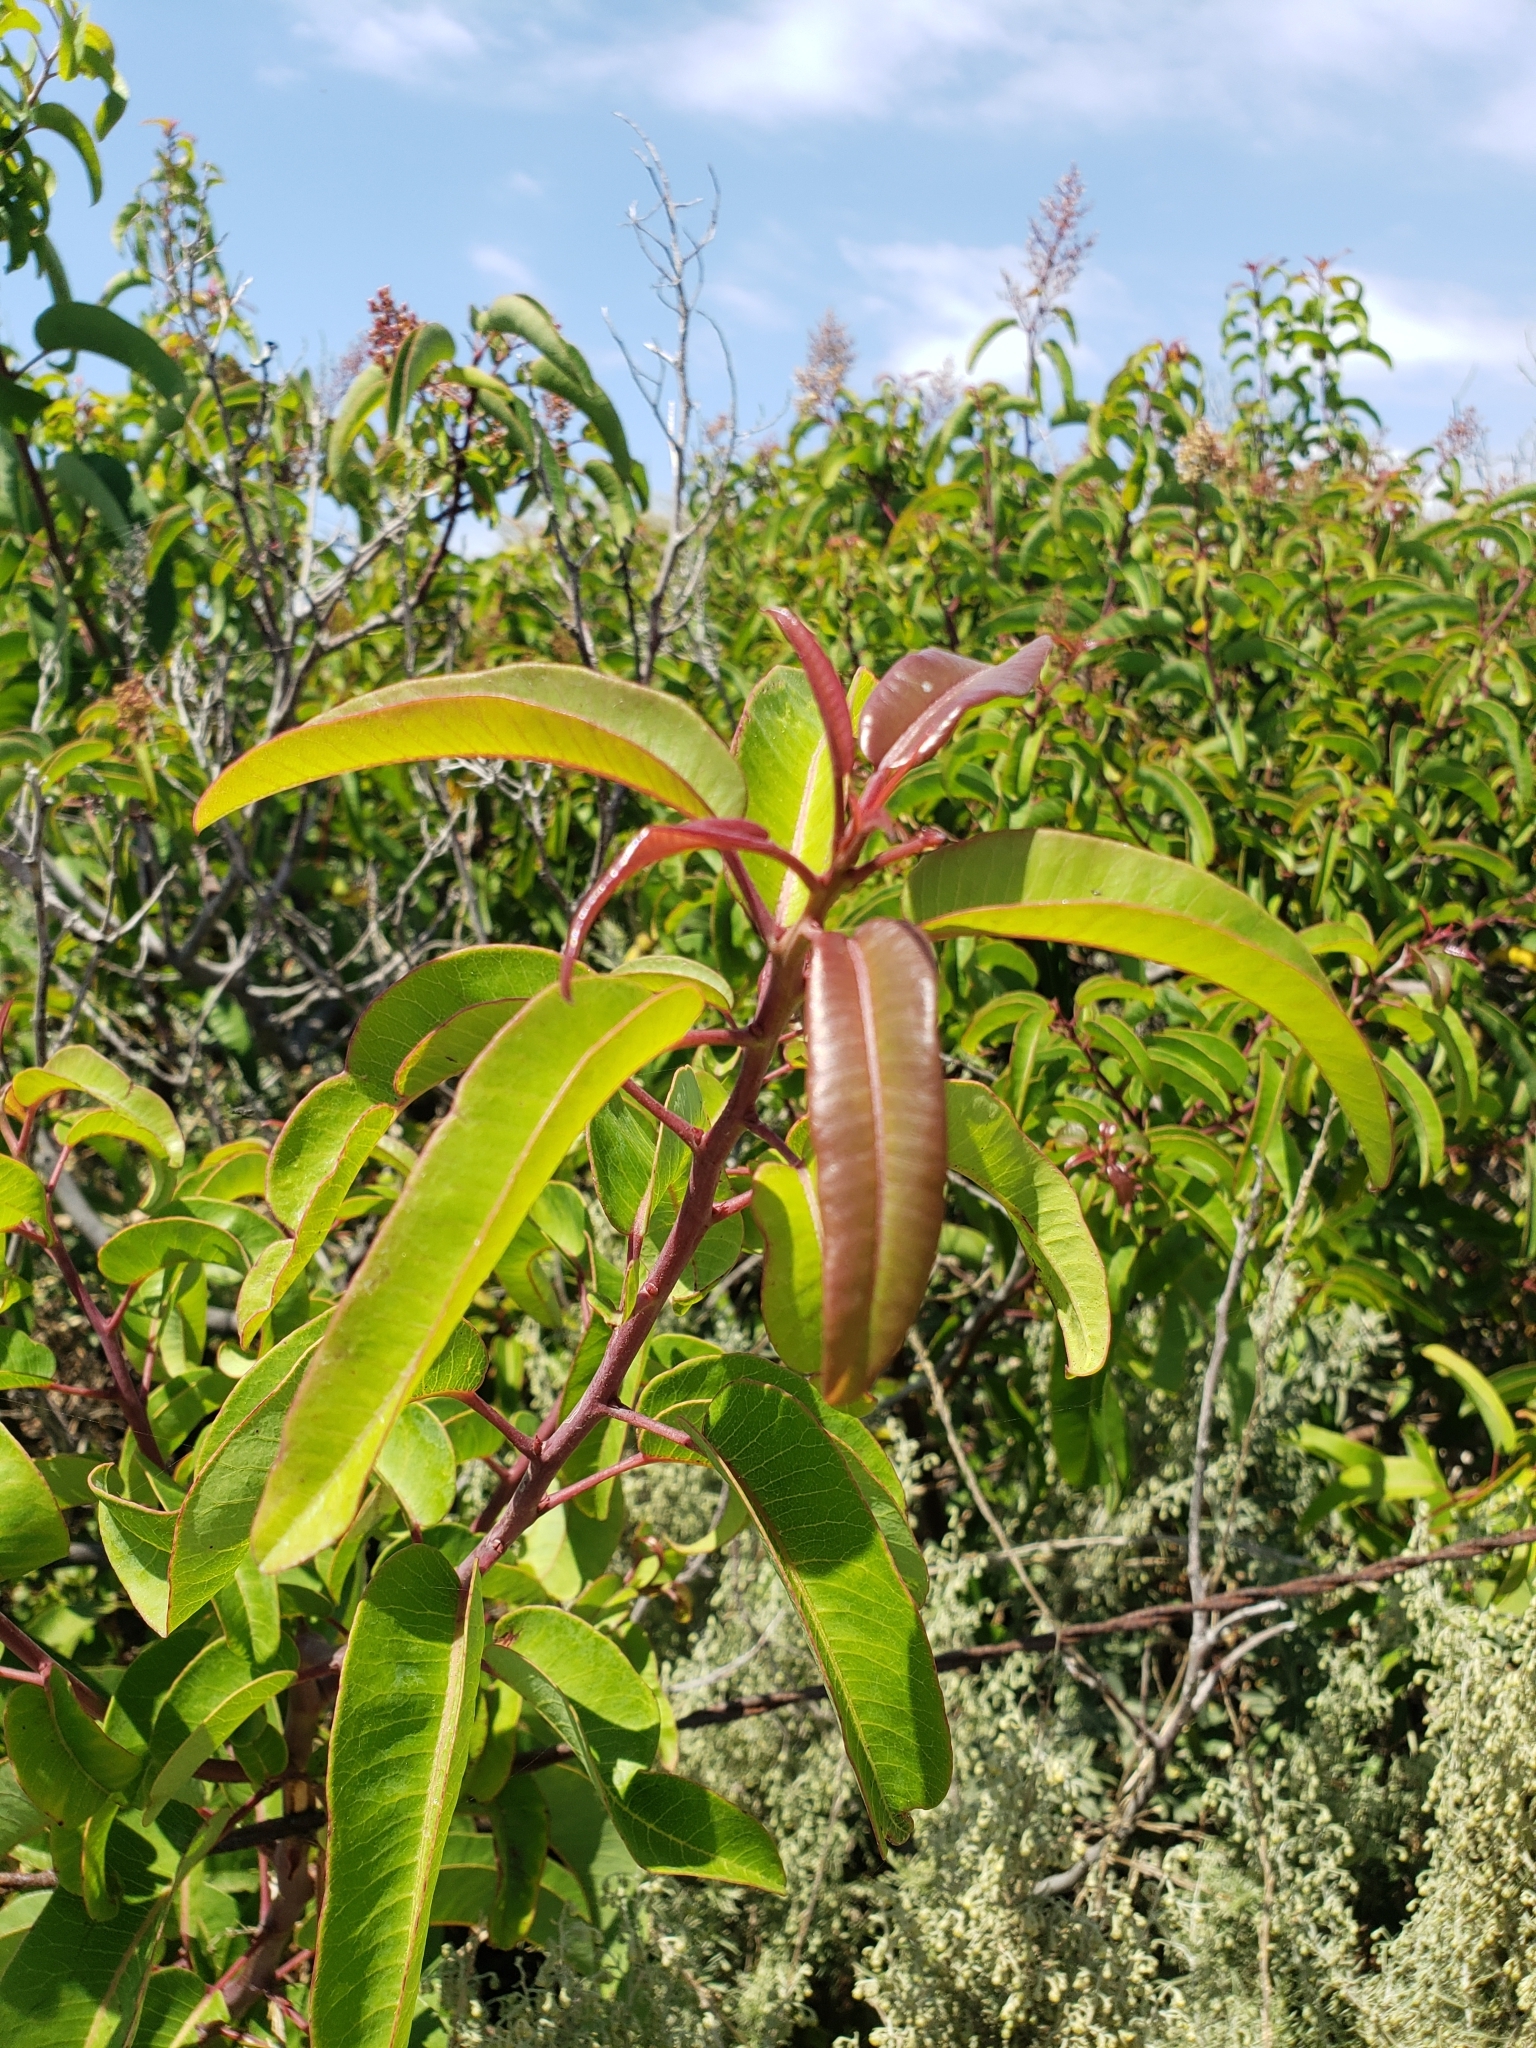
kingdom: Plantae
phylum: Tracheophyta
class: Magnoliopsida
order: Sapindales
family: Anacardiaceae
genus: Malosma
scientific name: Malosma laurina
